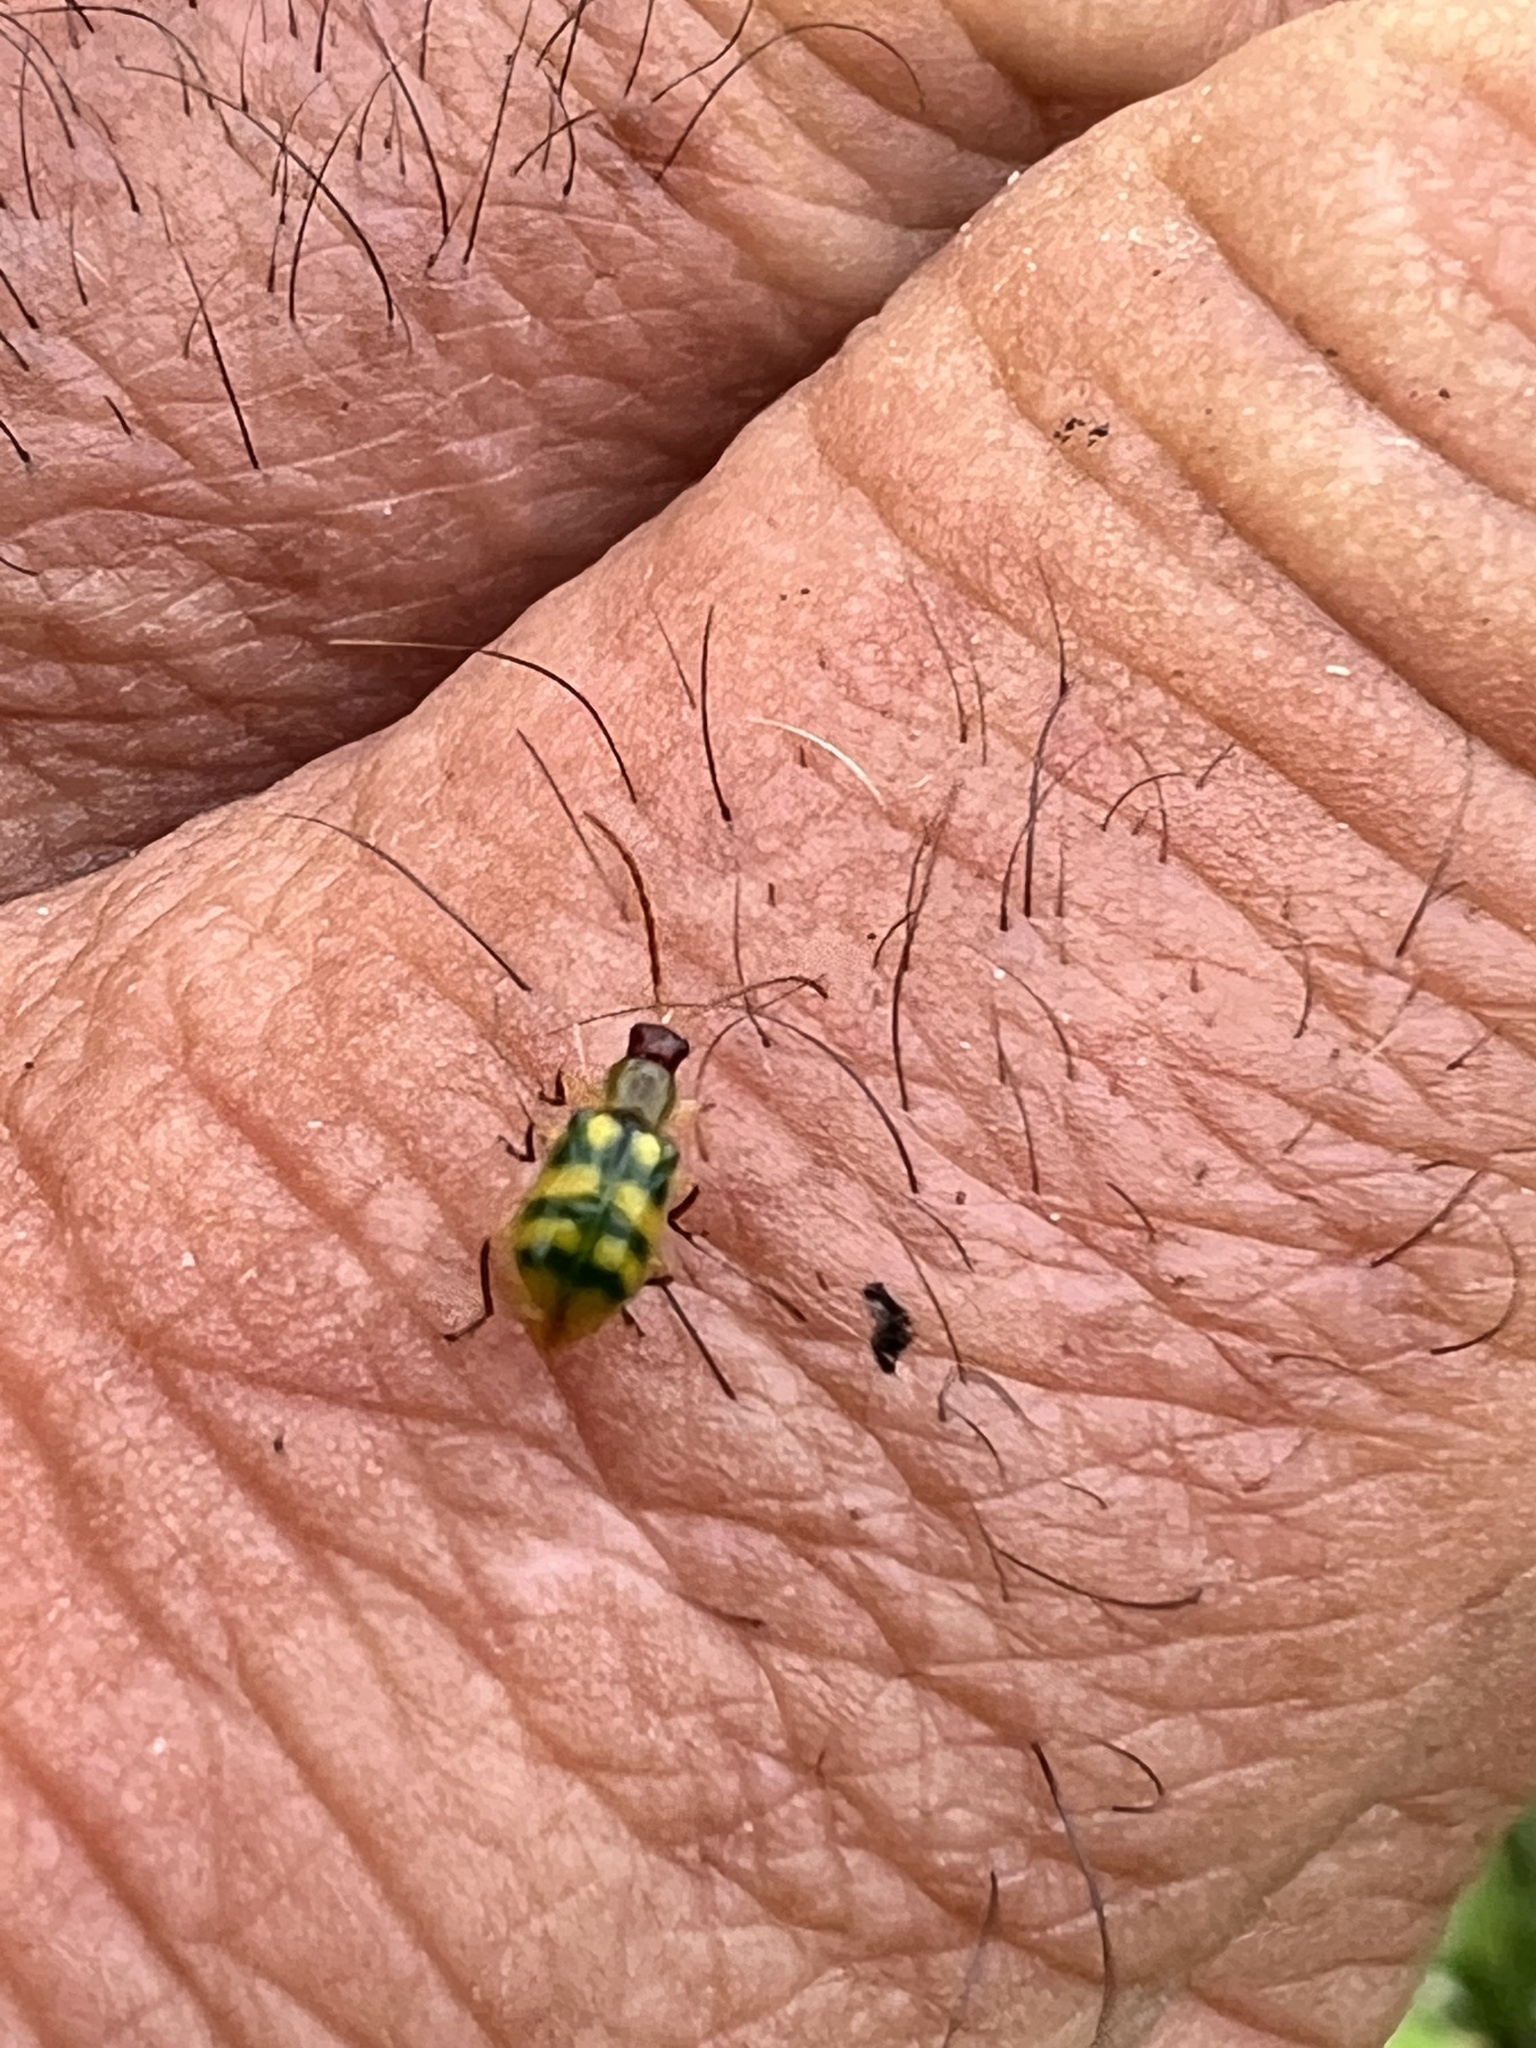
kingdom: Animalia
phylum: Arthropoda
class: Insecta
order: Coleoptera
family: Chrysomelidae
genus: Diabrotica
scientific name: Diabrotica balteata
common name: Leaf beetle
